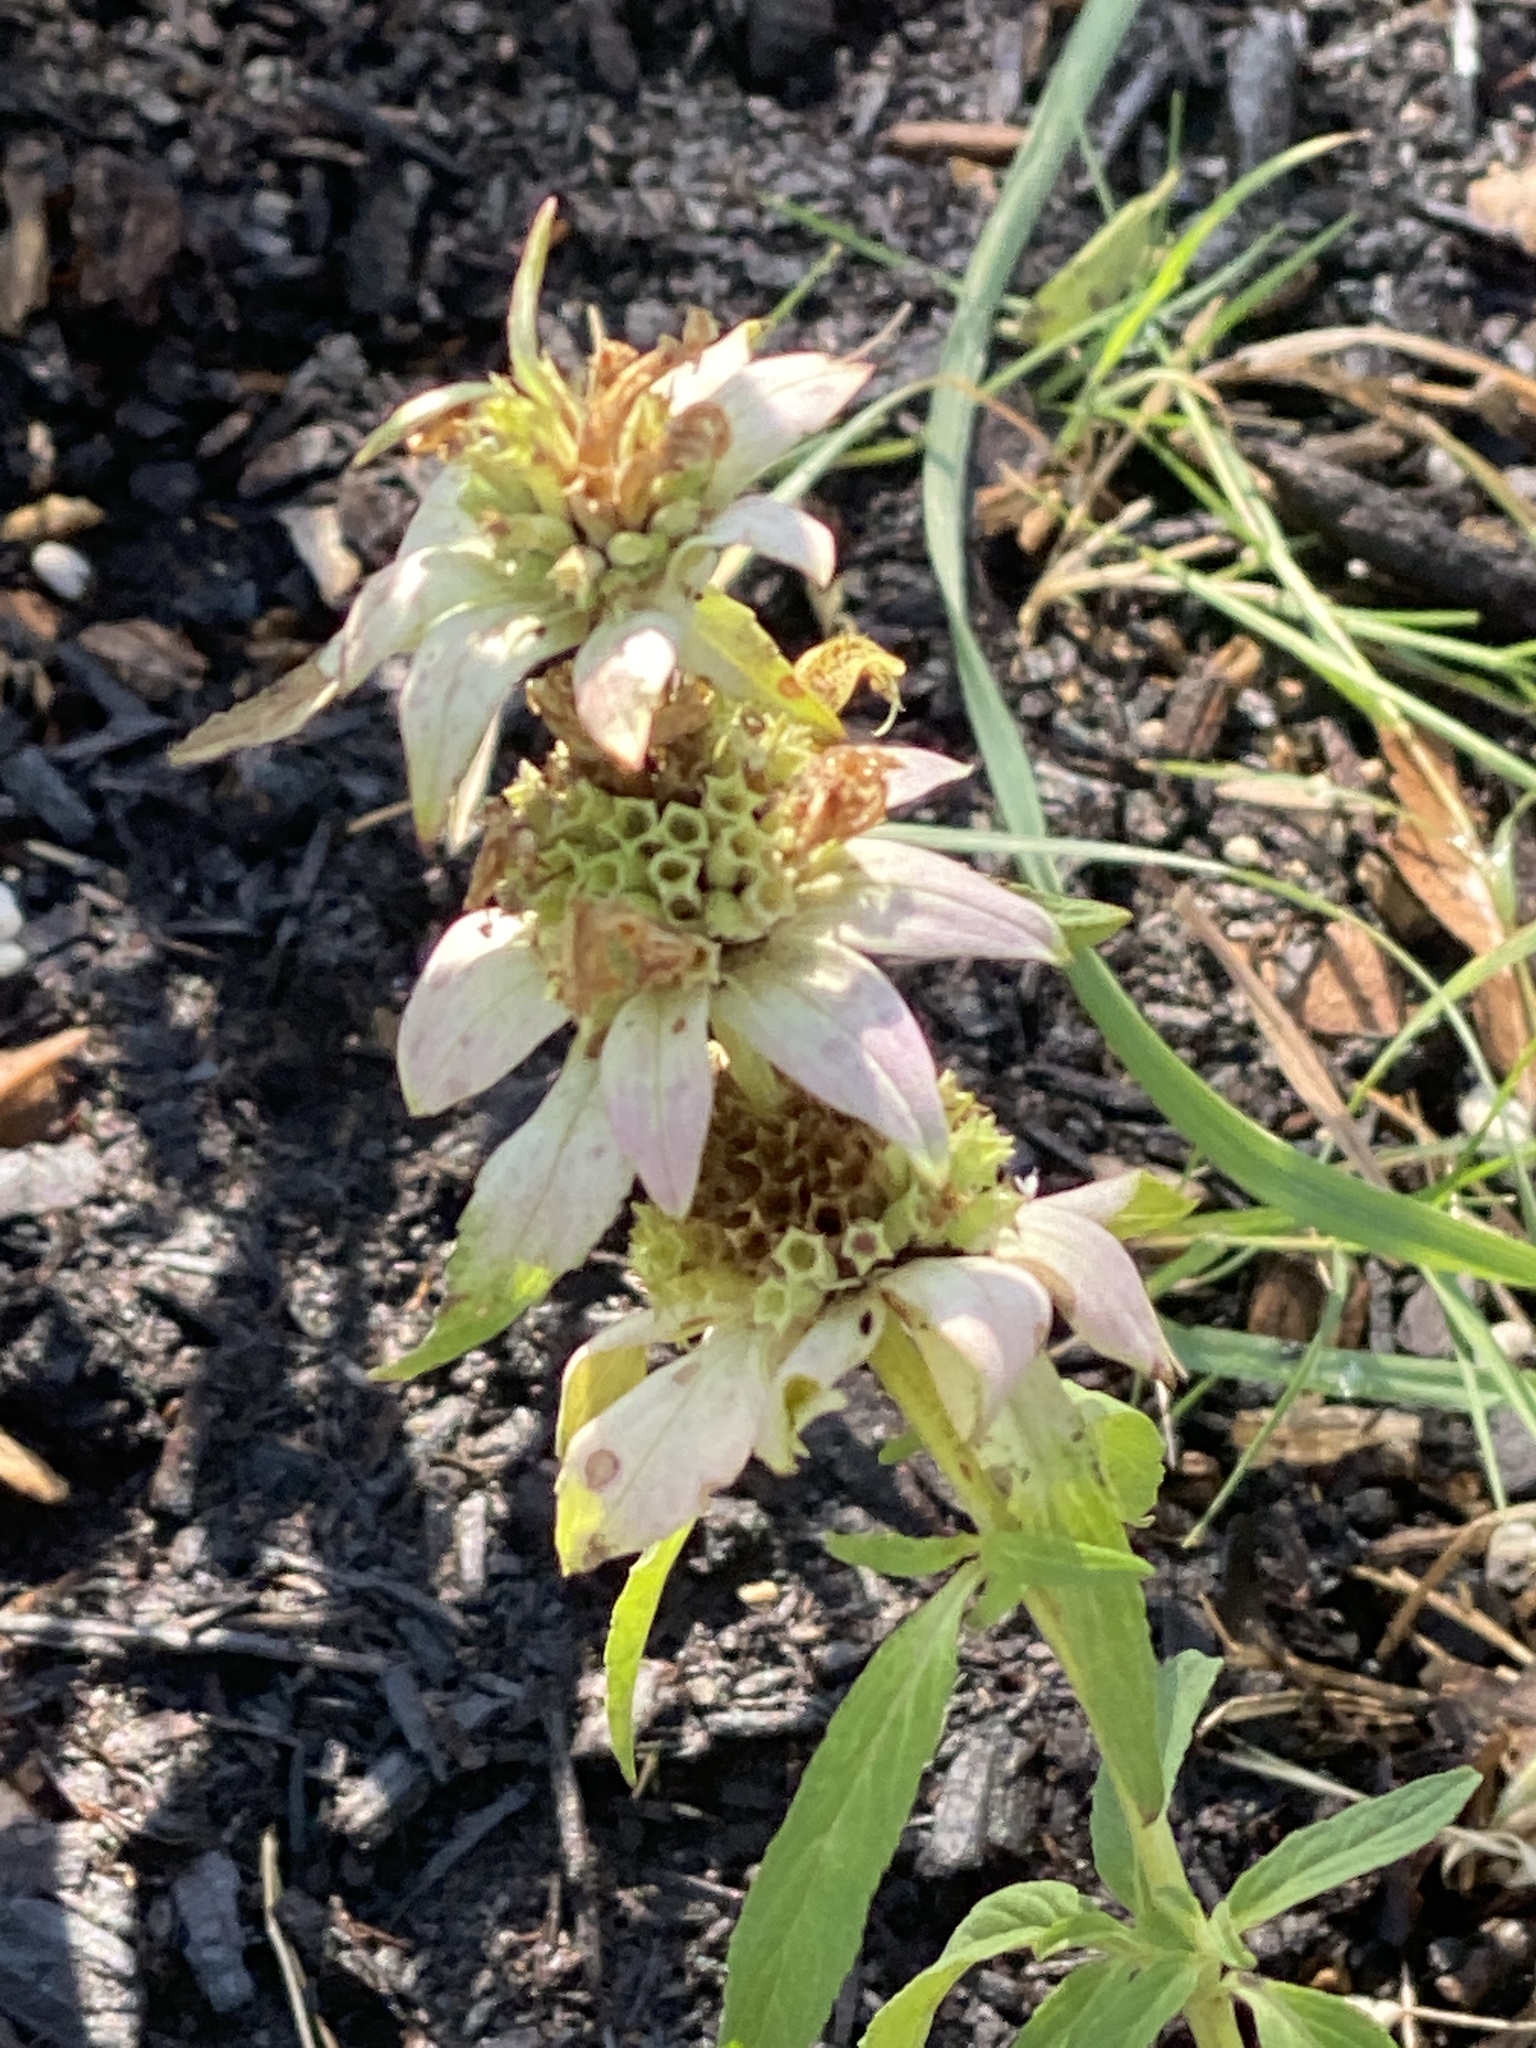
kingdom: Plantae
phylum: Tracheophyta
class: Magnoliopsida
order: Lamiales
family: Lamiaceae
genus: Monarda
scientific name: Monarda punctata
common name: Dotted monarda
